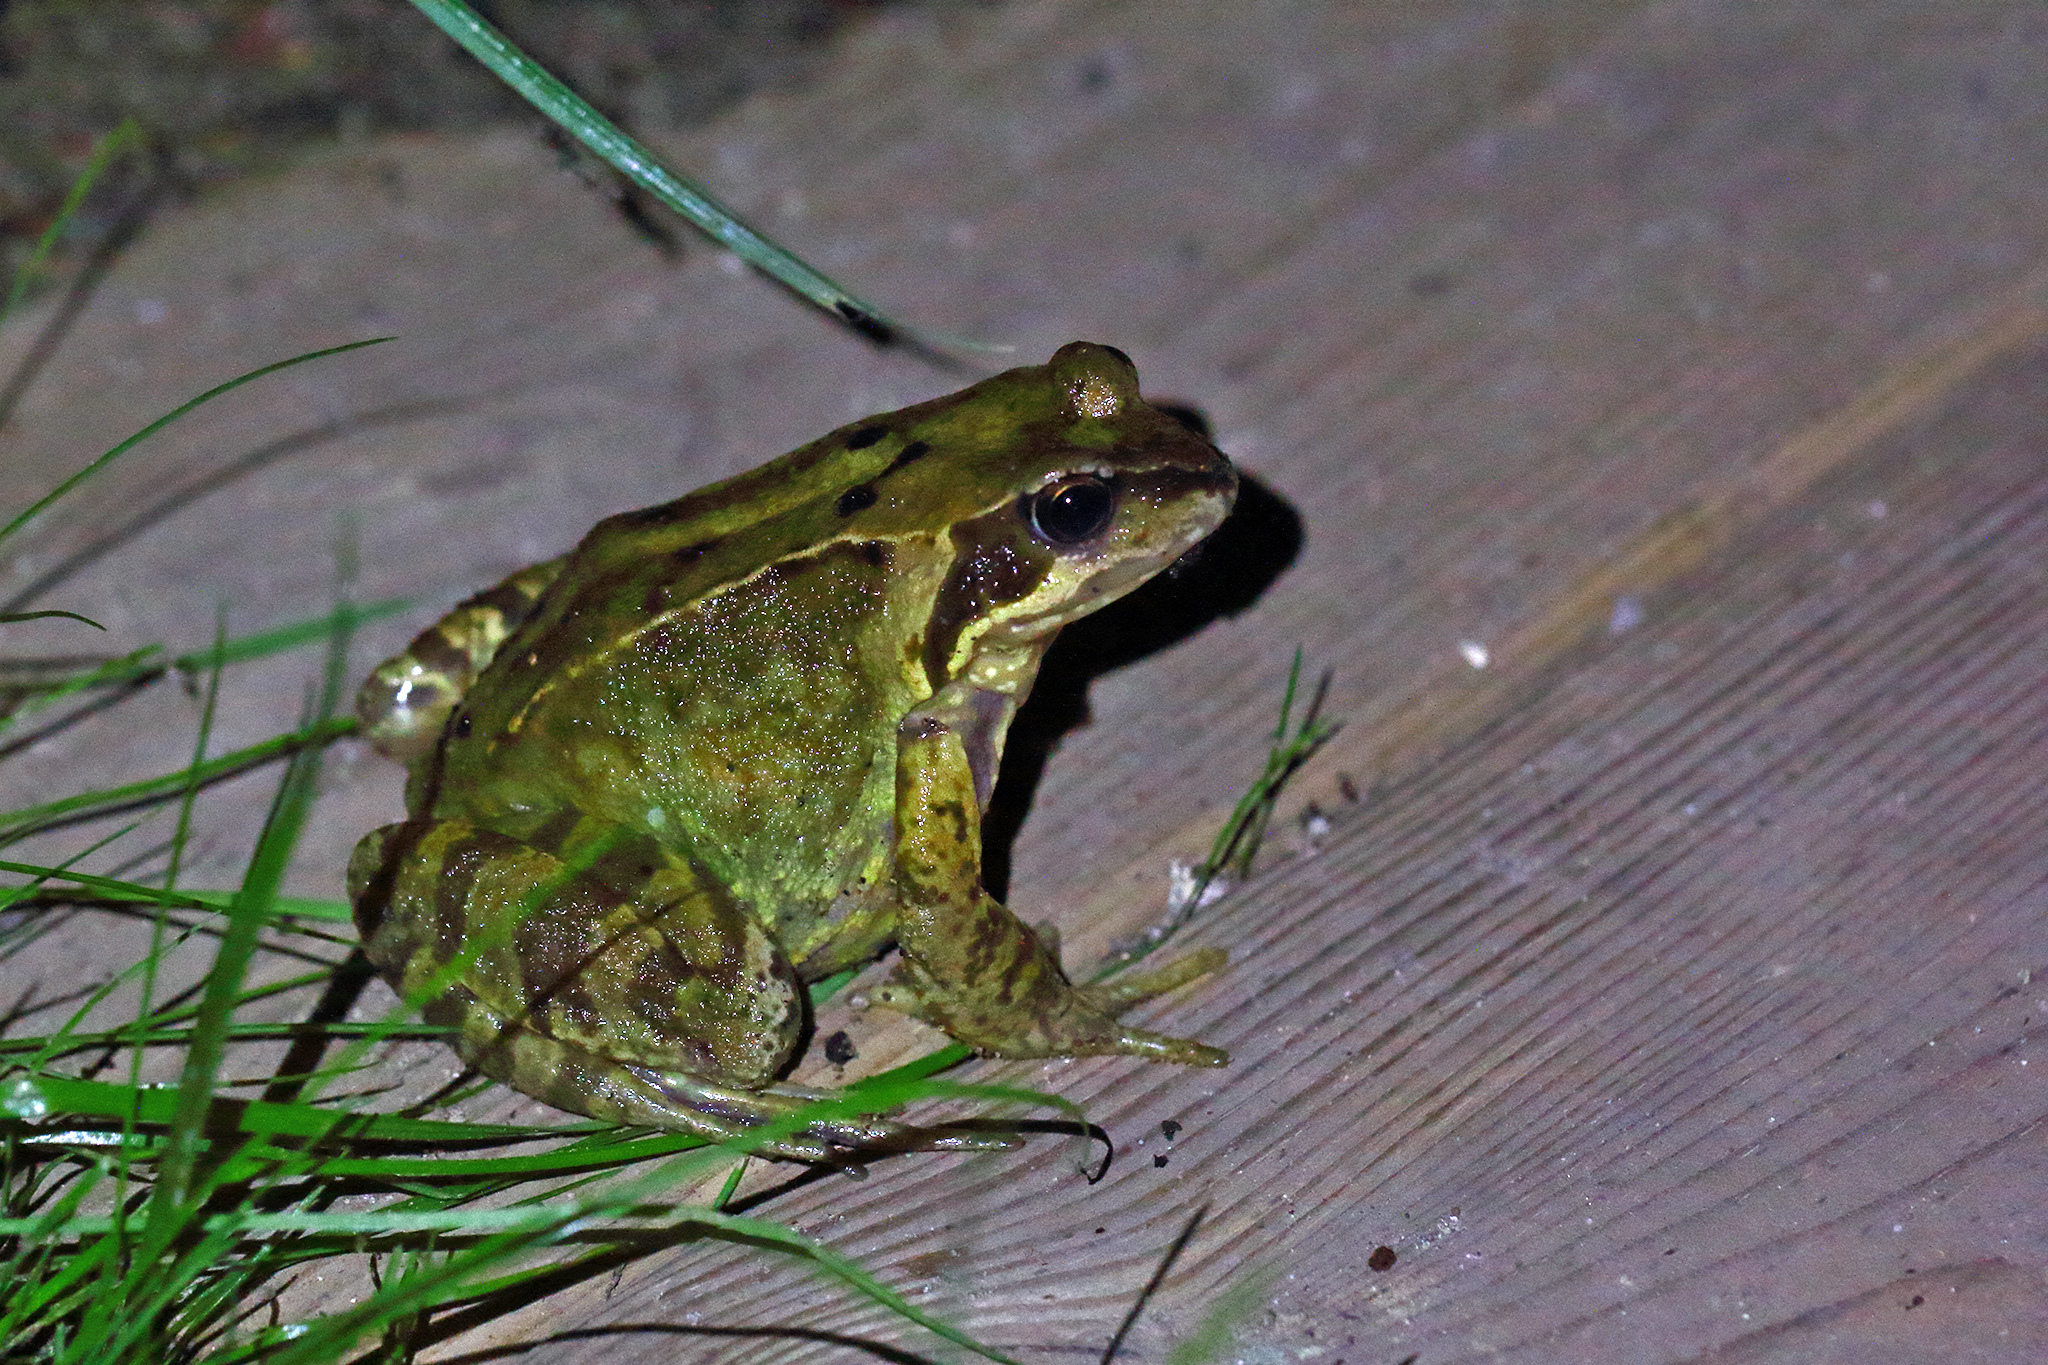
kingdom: Animalia
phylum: Chordata
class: Amphibia
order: Anura
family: Ranidae
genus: Rana
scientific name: Rana temporaria
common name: Common frog
